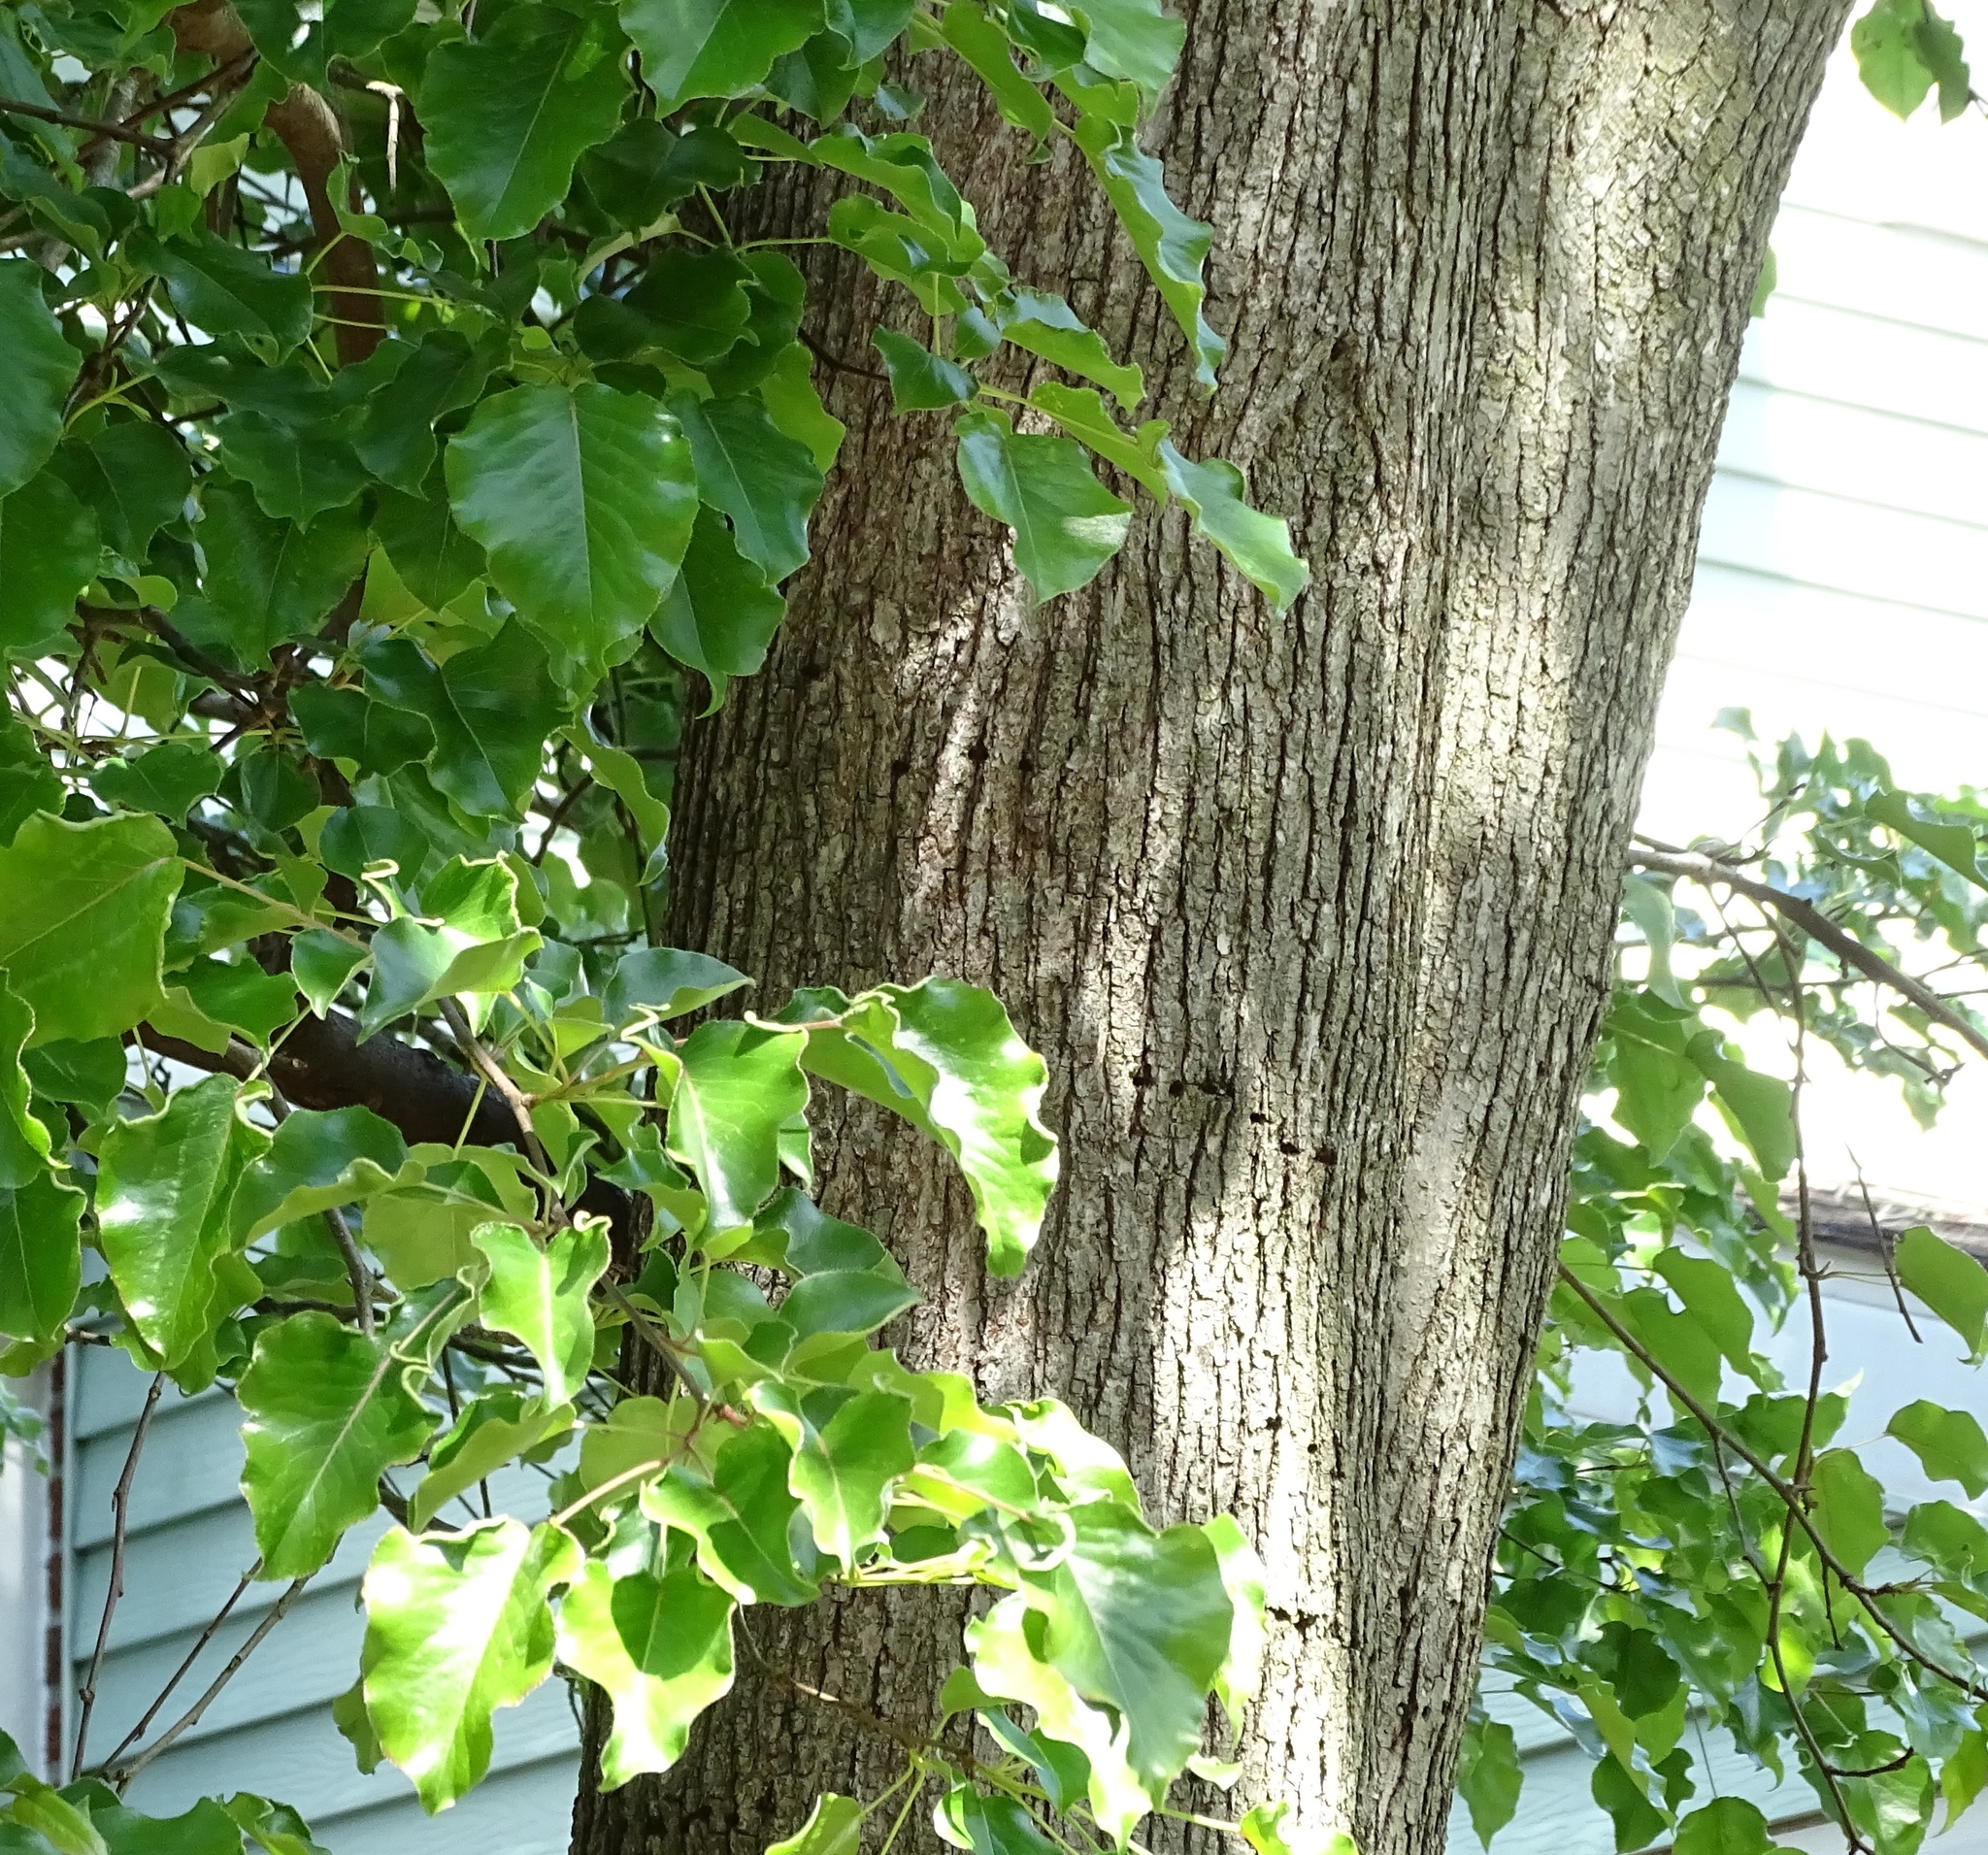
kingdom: Plantae
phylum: Tracheophyta
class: Magnoliopsida
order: Rosales
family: Rosaceae
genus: Pyrus
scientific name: Pyrus calleryana
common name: Callery pear
